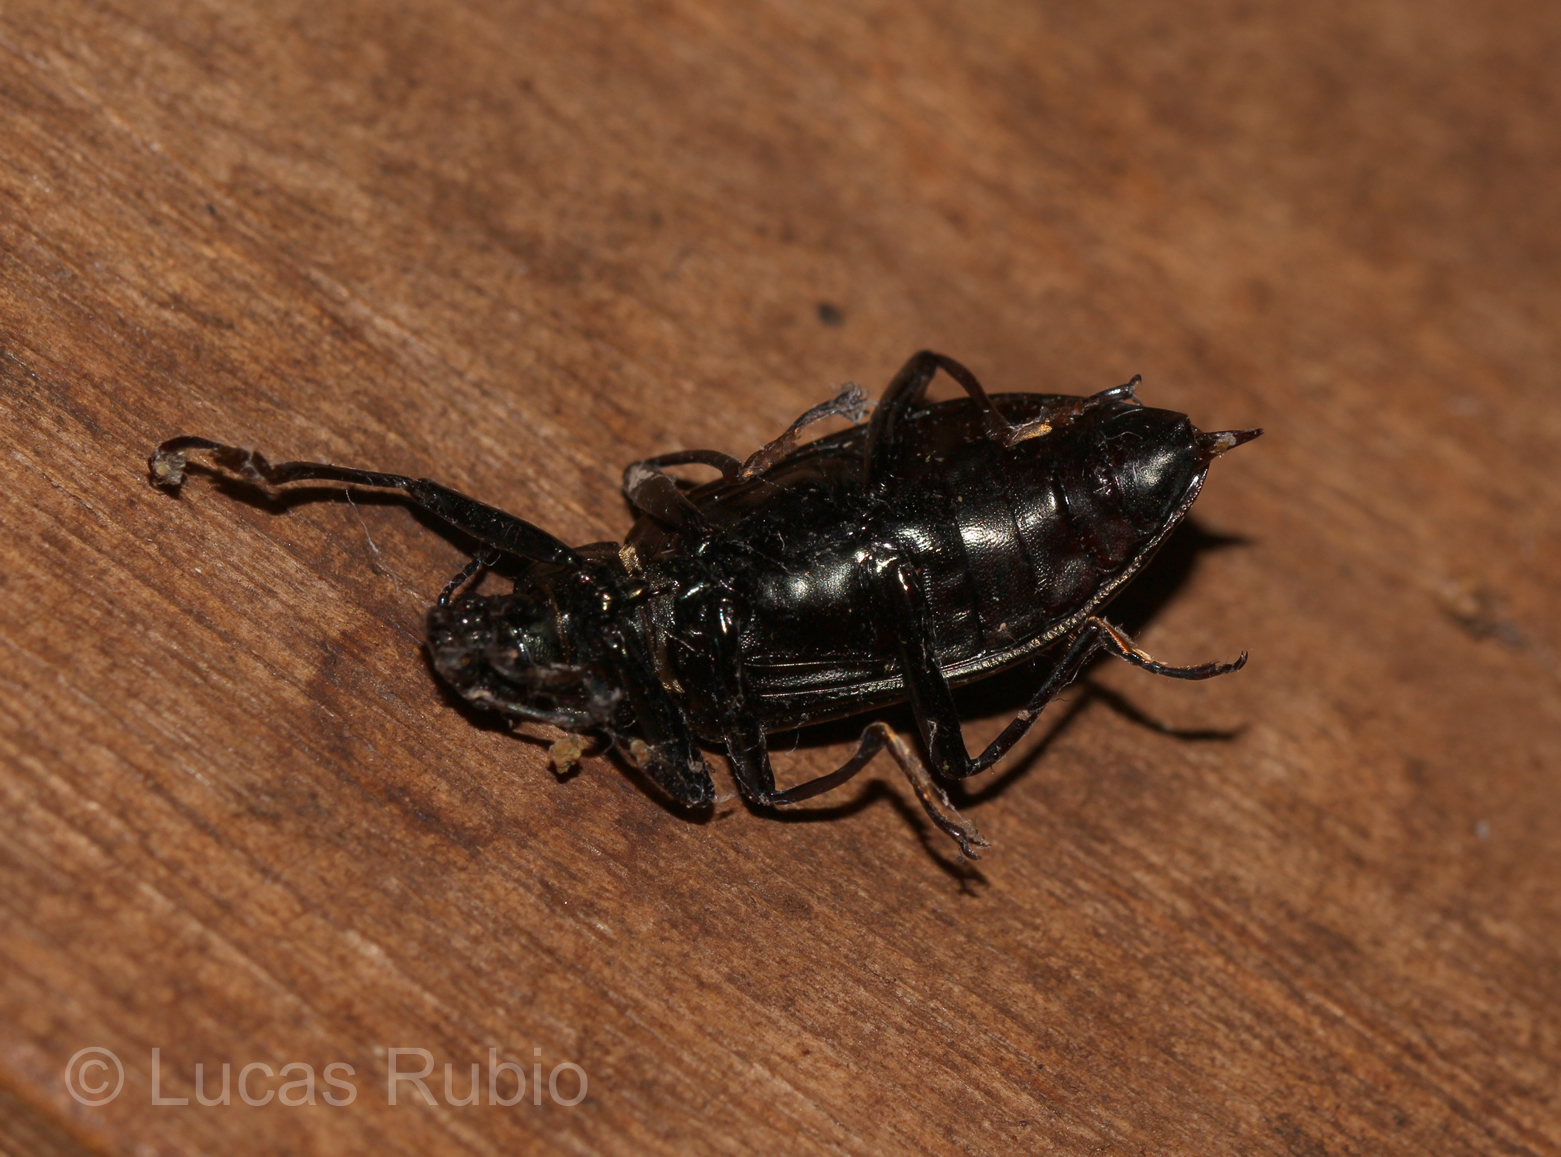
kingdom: Animalia
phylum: Arthropoda
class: Insecta
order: Coleoptera
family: Tenebrionidae
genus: Camaria
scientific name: Camaria
